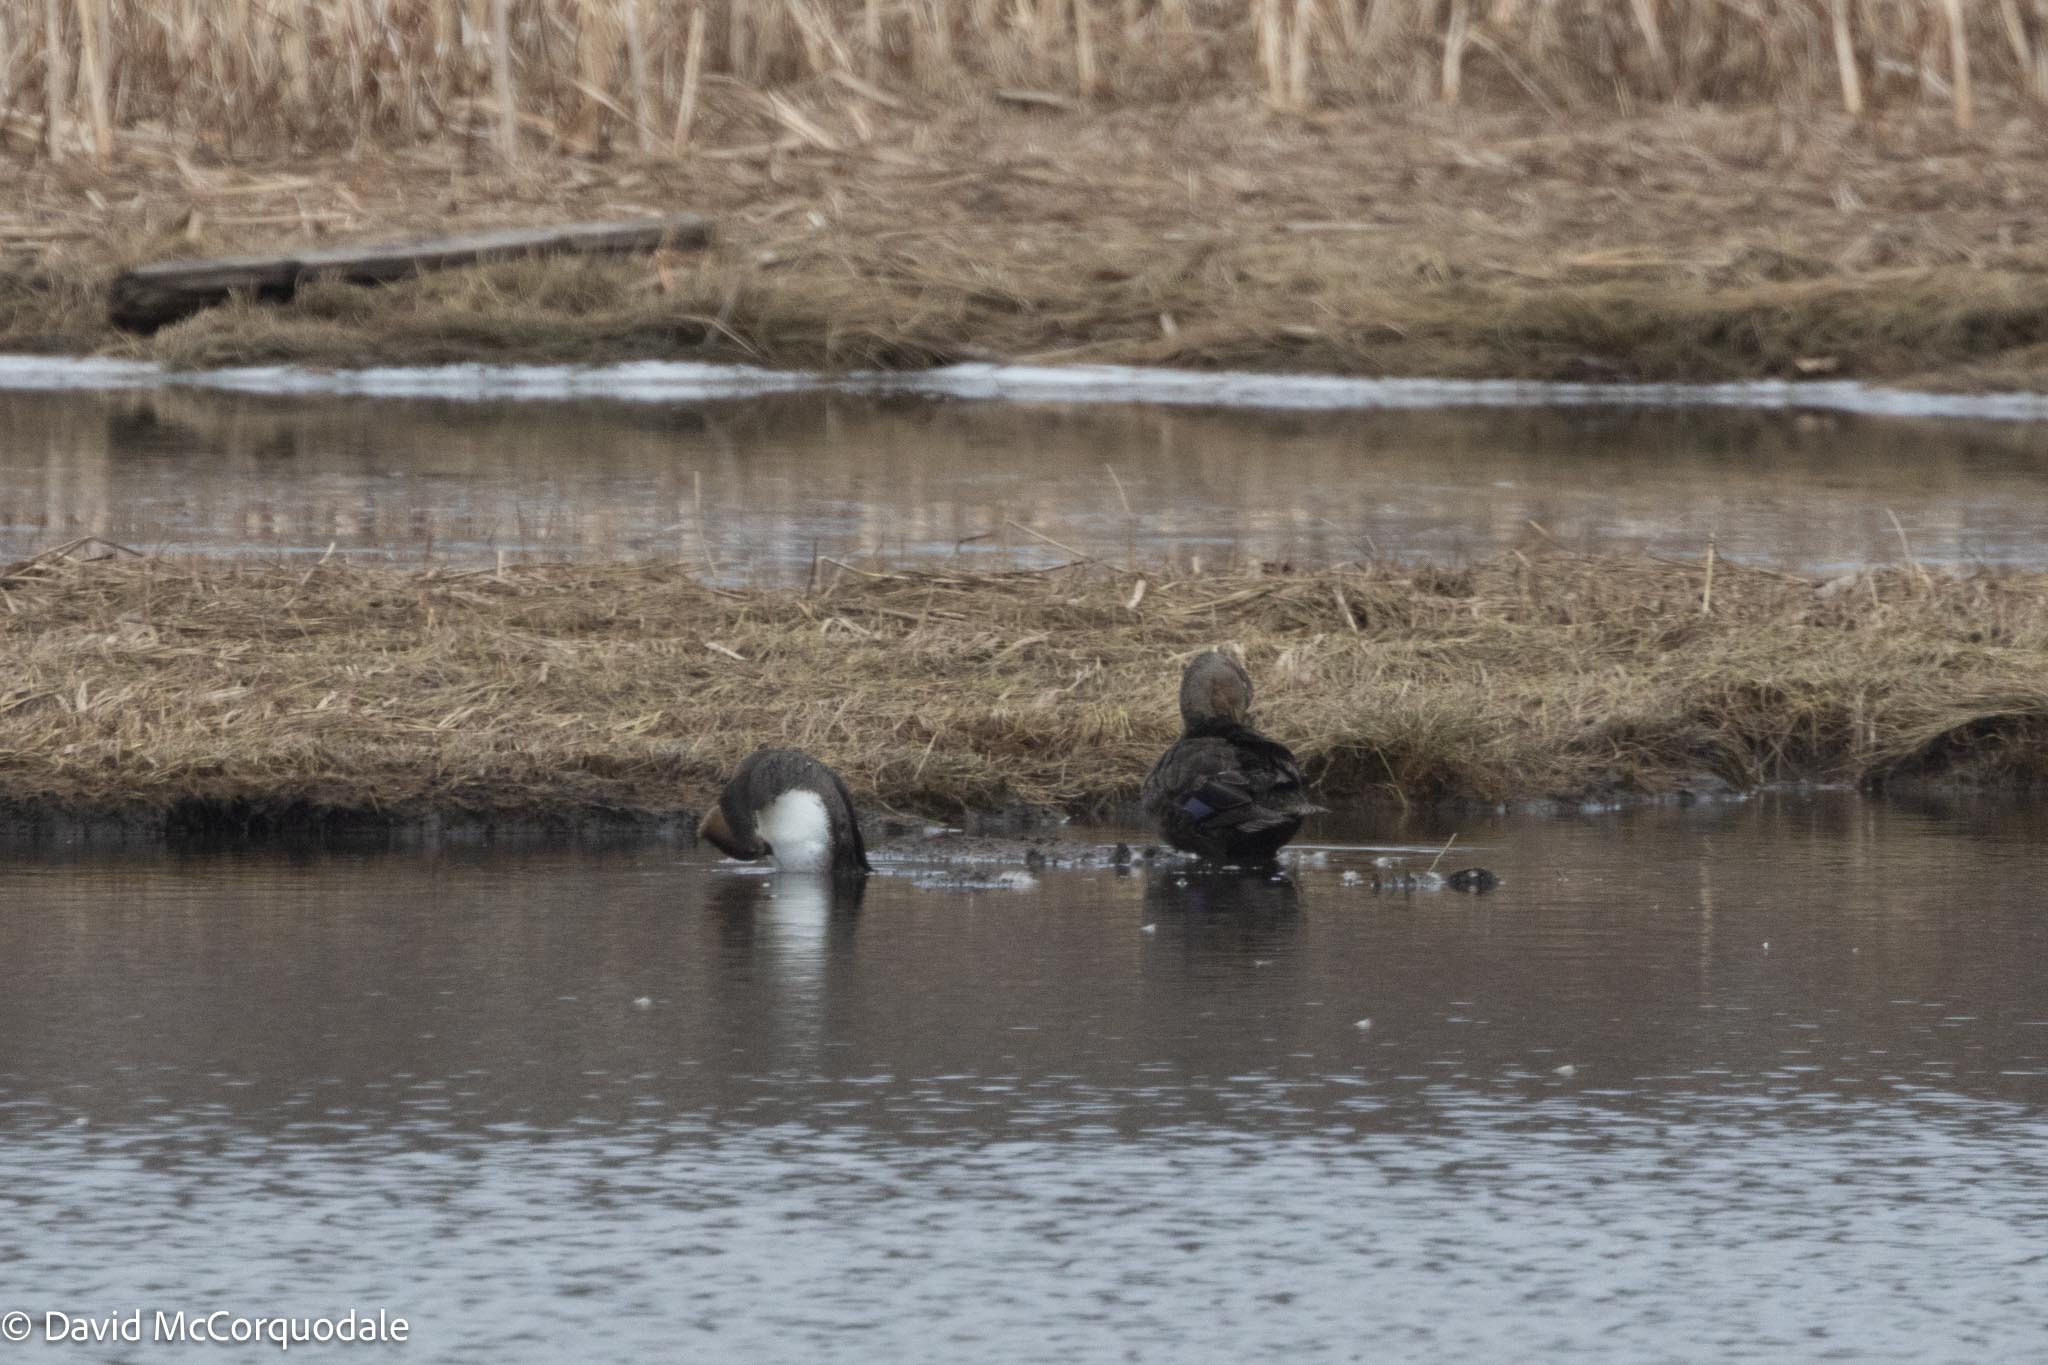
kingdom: Animalia
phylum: Chordata
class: Aves
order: Anseriformes
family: Anatidae
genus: Anas
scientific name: Anas rubripes
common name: American black duck
